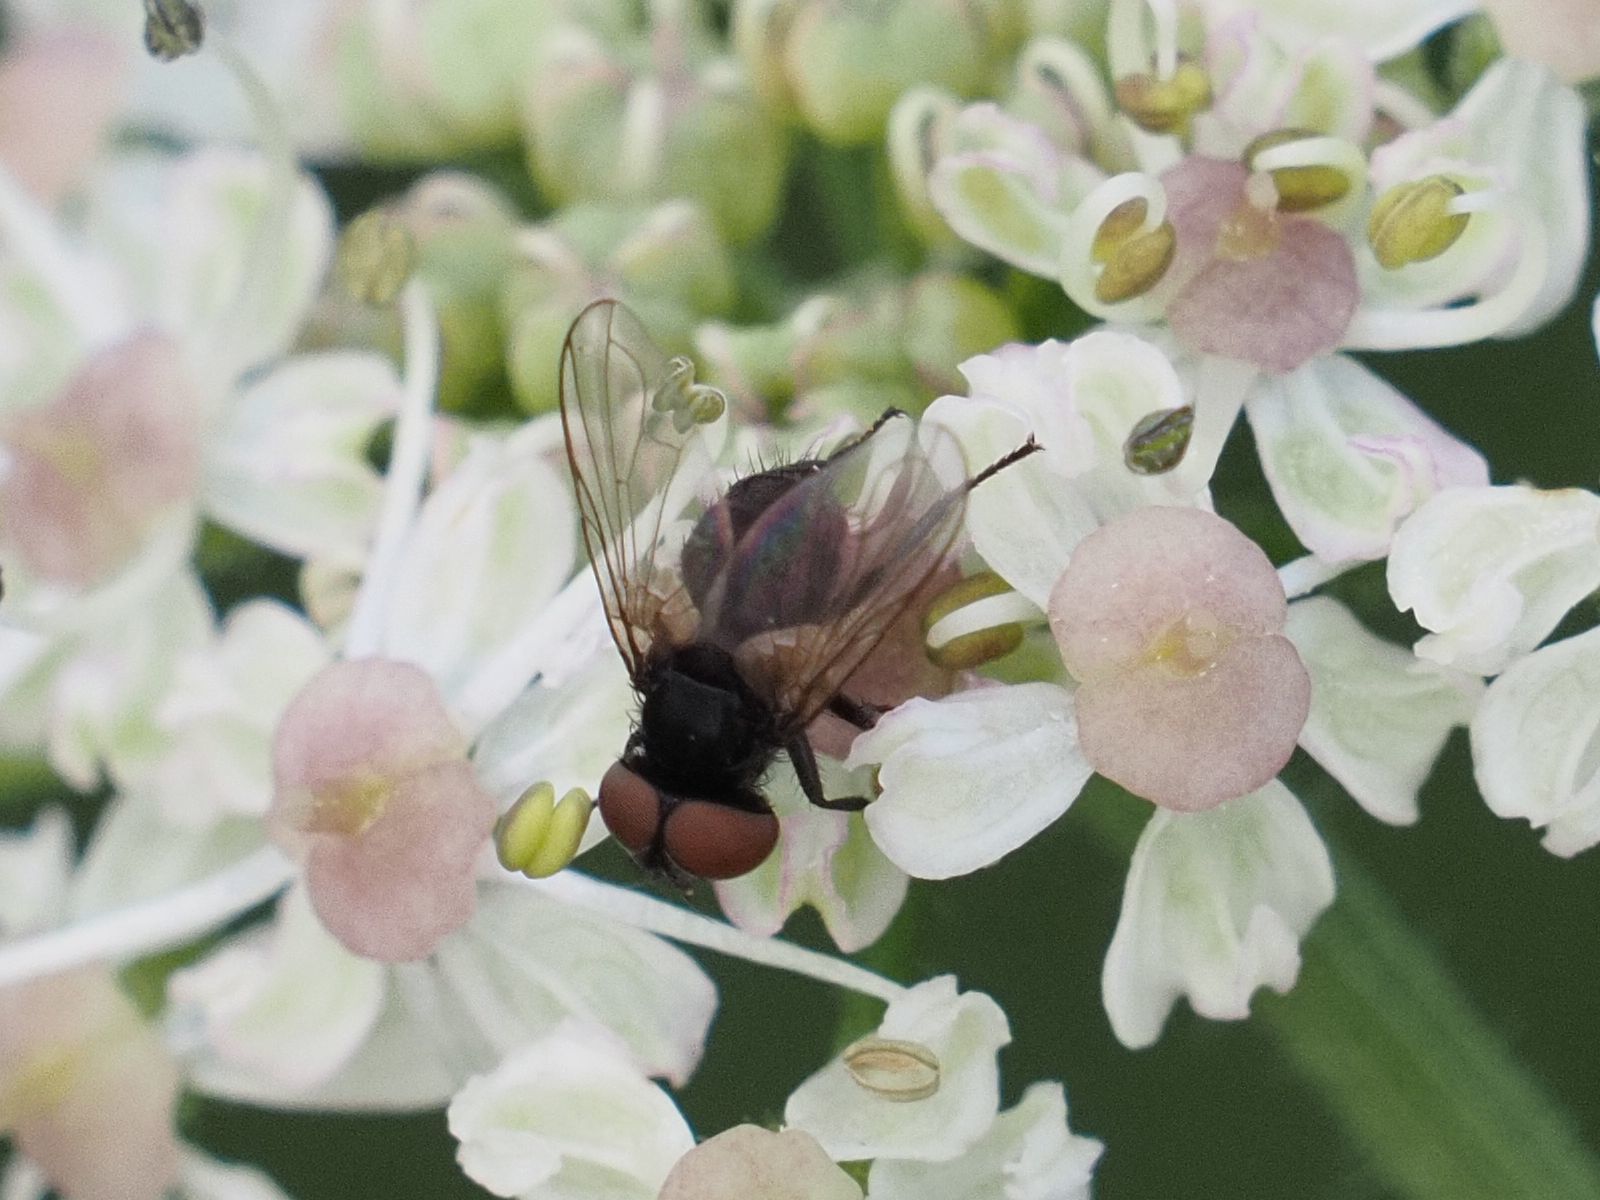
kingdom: Animalia
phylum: Arthropoda
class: Insecta
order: Diptera
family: Tachinidae
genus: Phasia
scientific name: Phasia barbifrons
